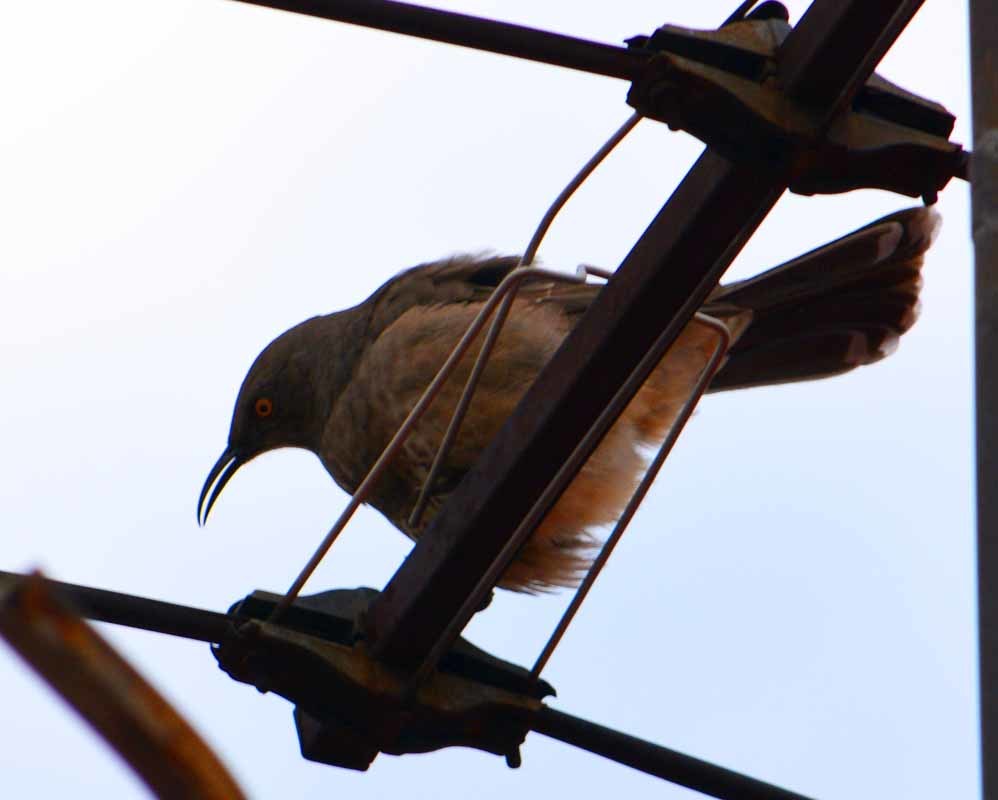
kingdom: Animalia
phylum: Chordata
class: Aves
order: Passeriformes
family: Mimidae
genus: Toxostoma
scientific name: Toxostoma curvirostre
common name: Curve-billed thrasher
